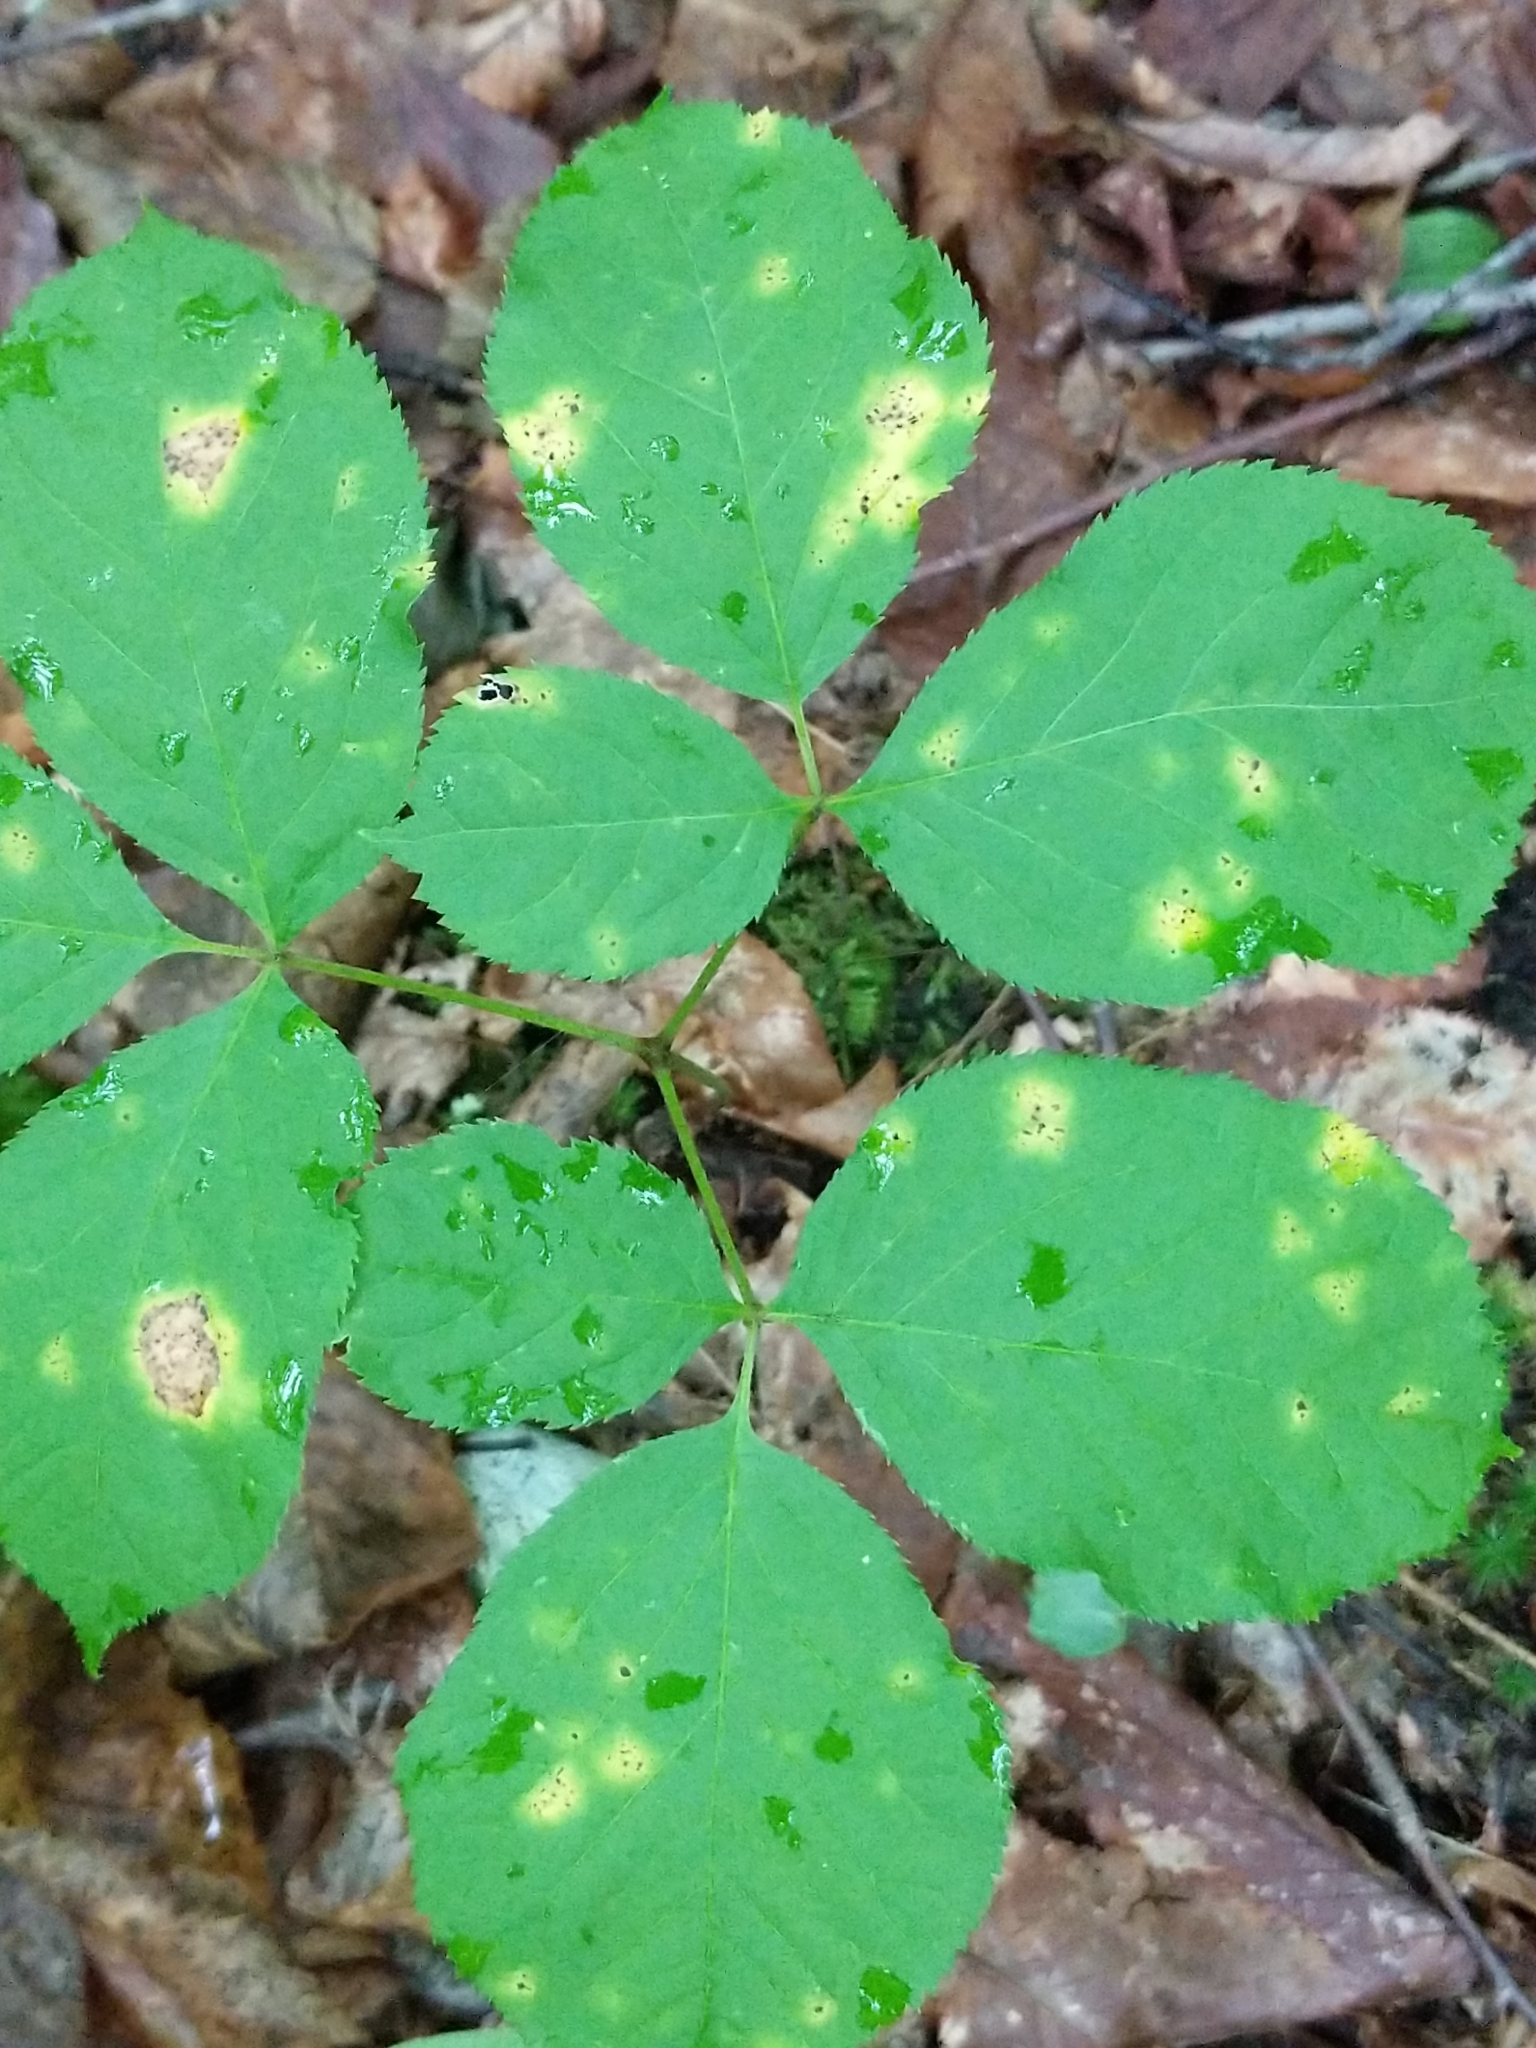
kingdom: Plantae
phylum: Tracheophyta
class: Magnoliopsida
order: Apiales
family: Araliaceae
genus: Aralia
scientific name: Aralia nudicaulis
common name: Wild sarsaparilla
